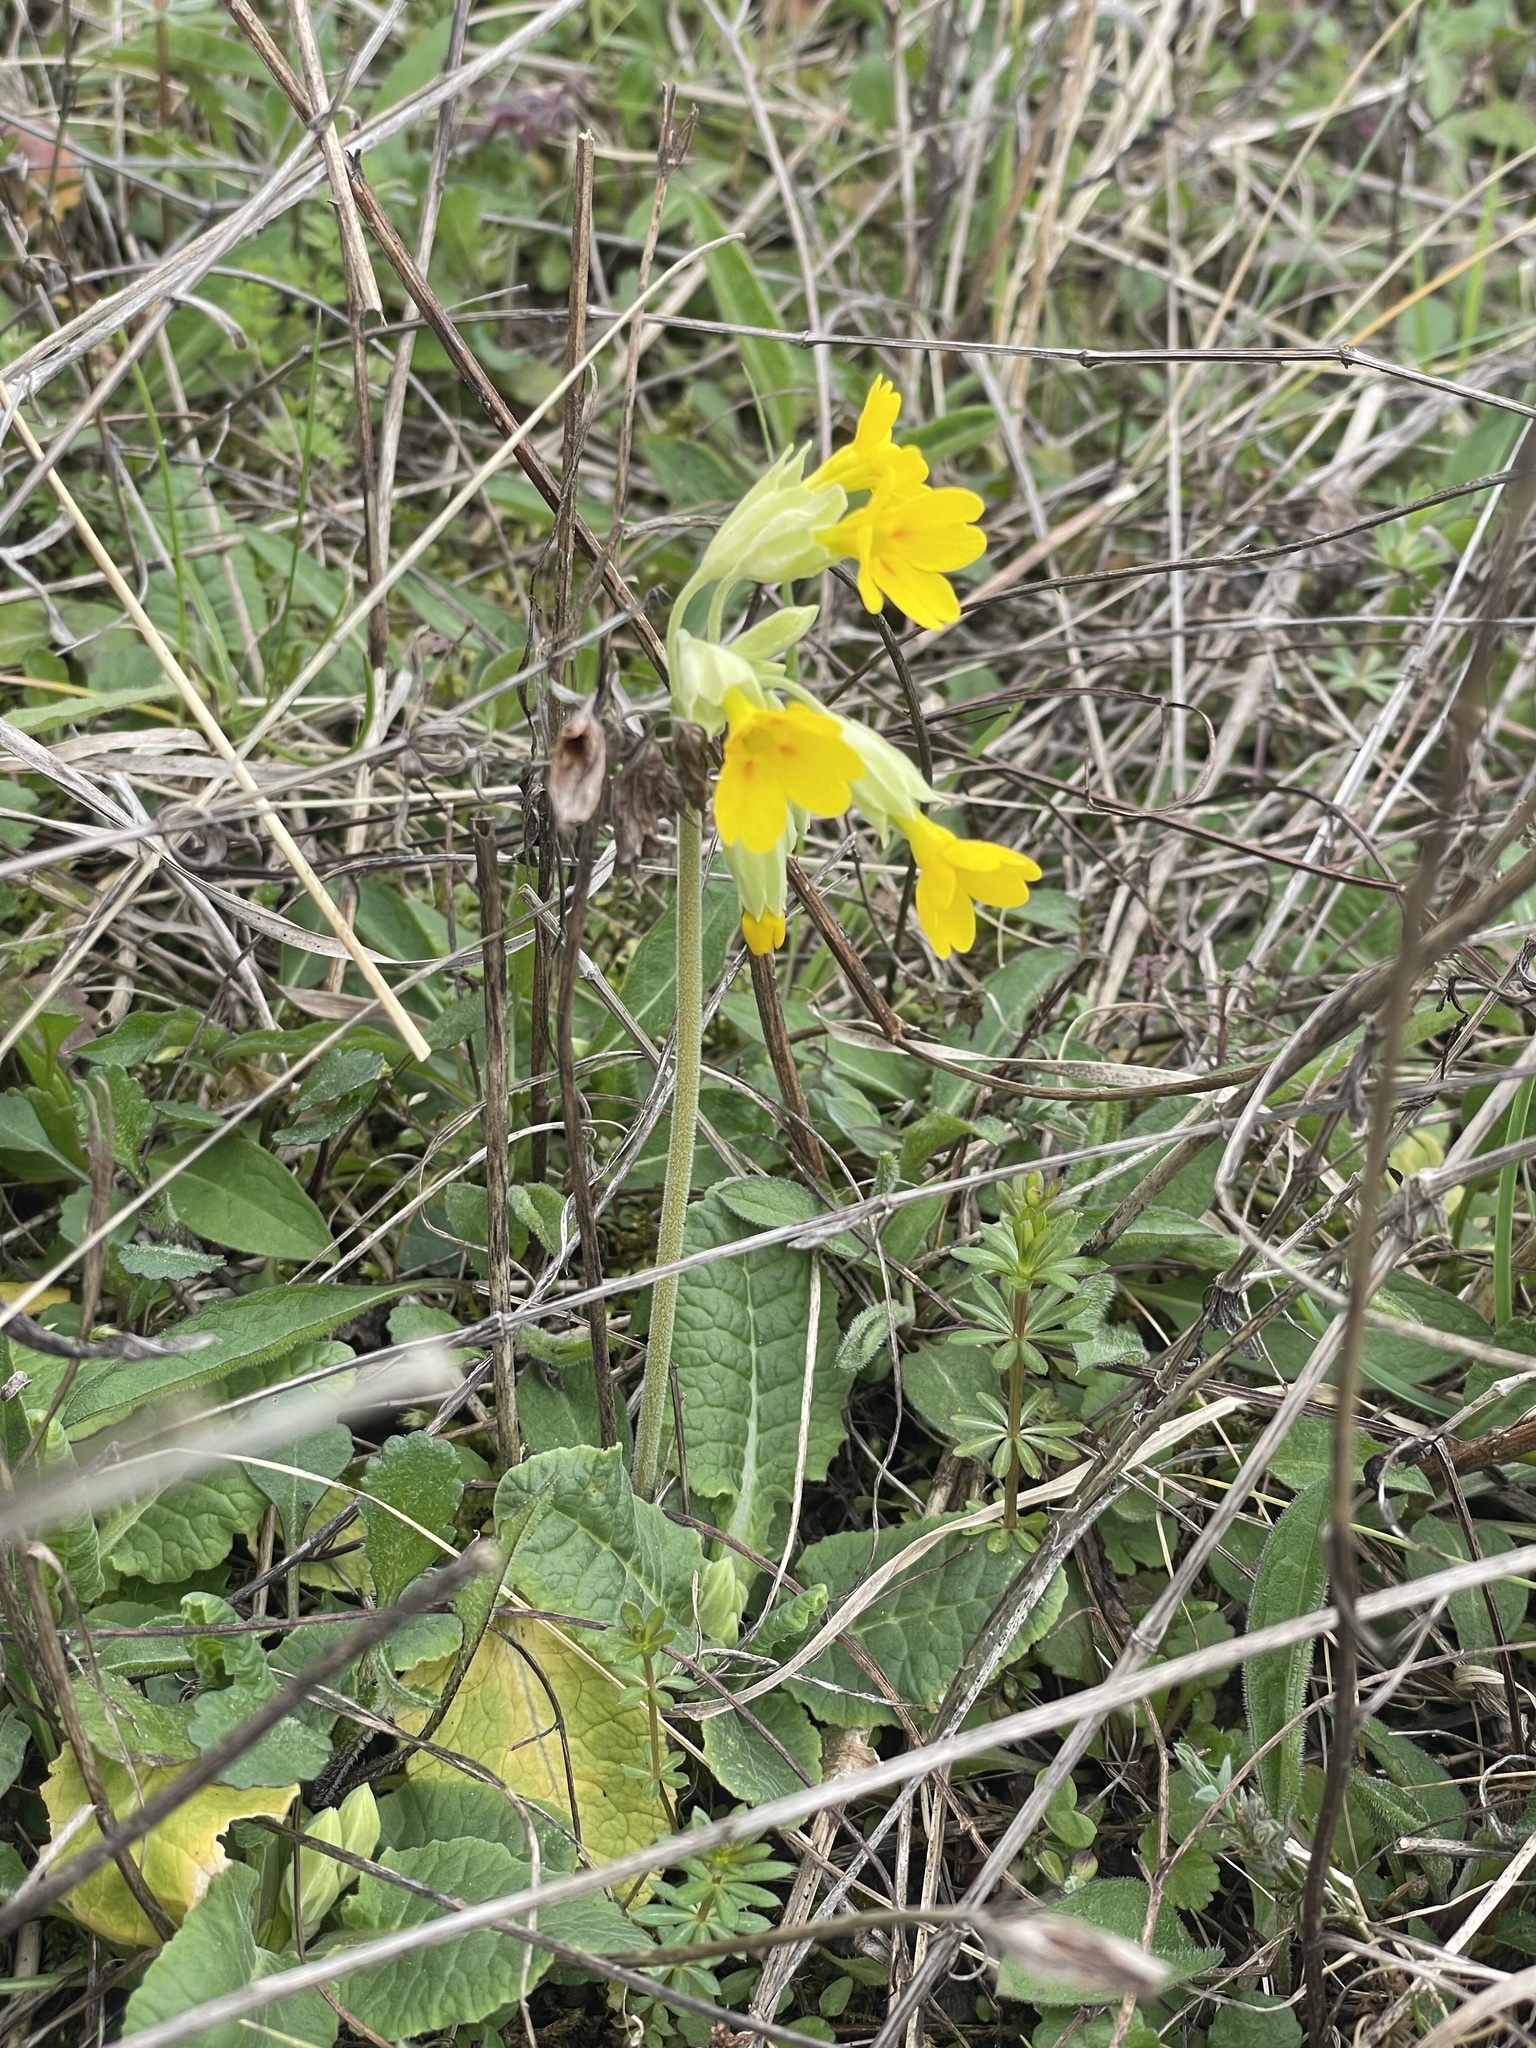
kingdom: Plantae
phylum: Tracheophyta
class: Magnoliopsida
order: Ericales
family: Primulaceae
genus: Primula
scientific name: Primula veris
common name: Cowslip
